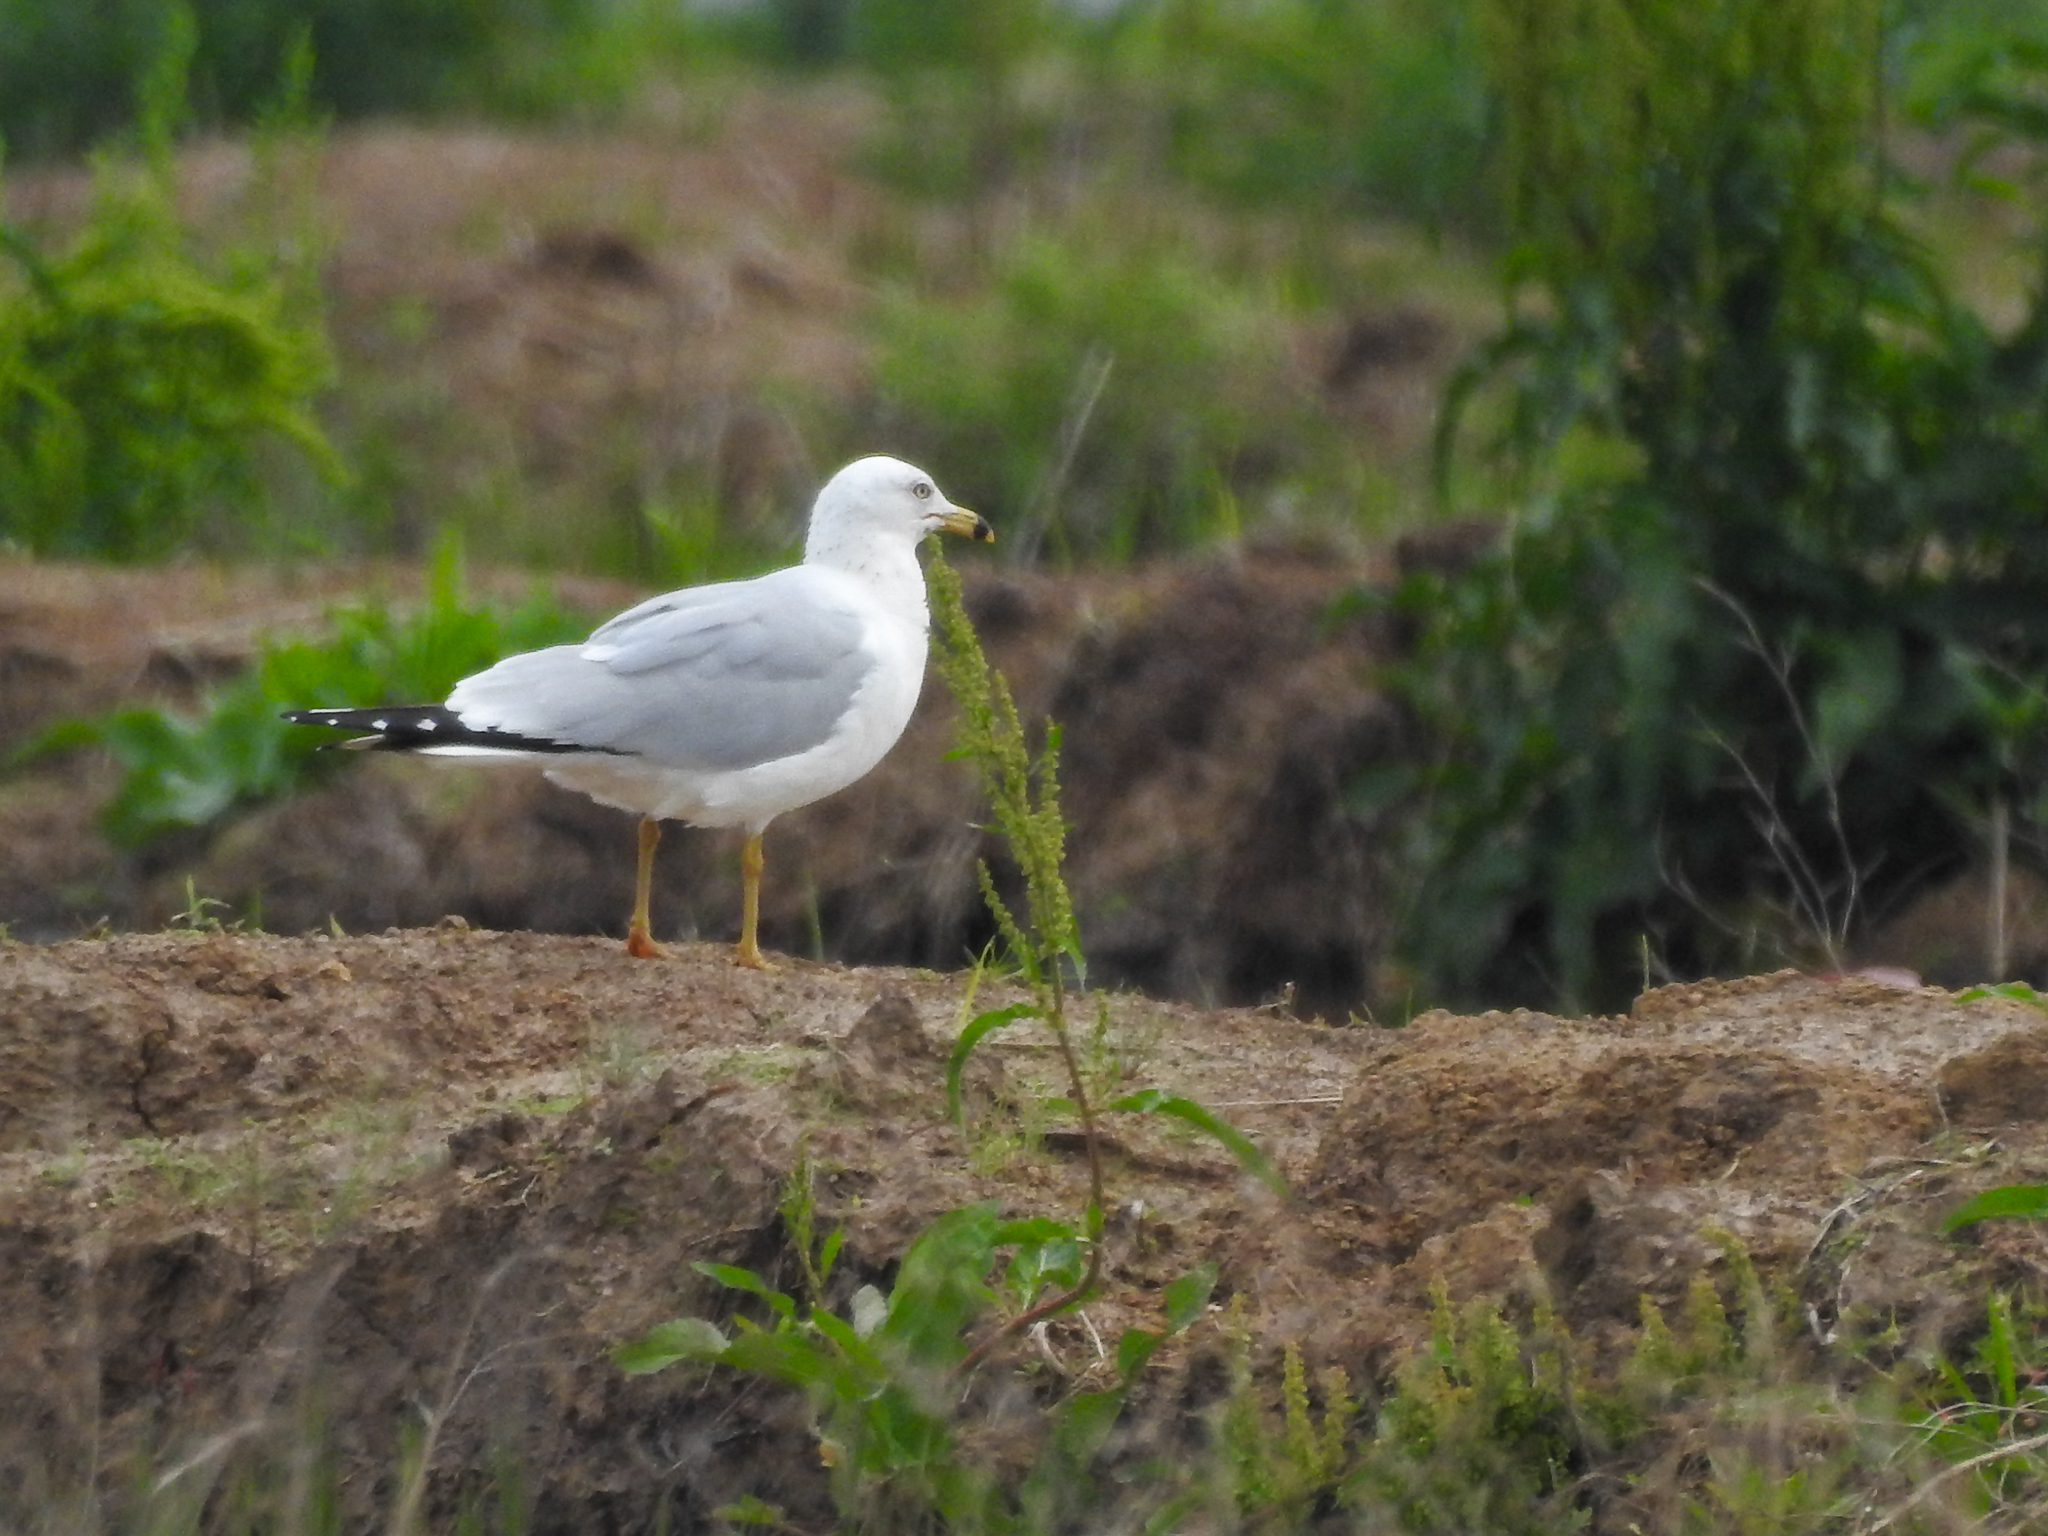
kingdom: Animalia
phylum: Chordata
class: Aves
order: Charadriiformes
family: Laridae
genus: Larus
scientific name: Larus delawarensis
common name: Ring-billed gull
